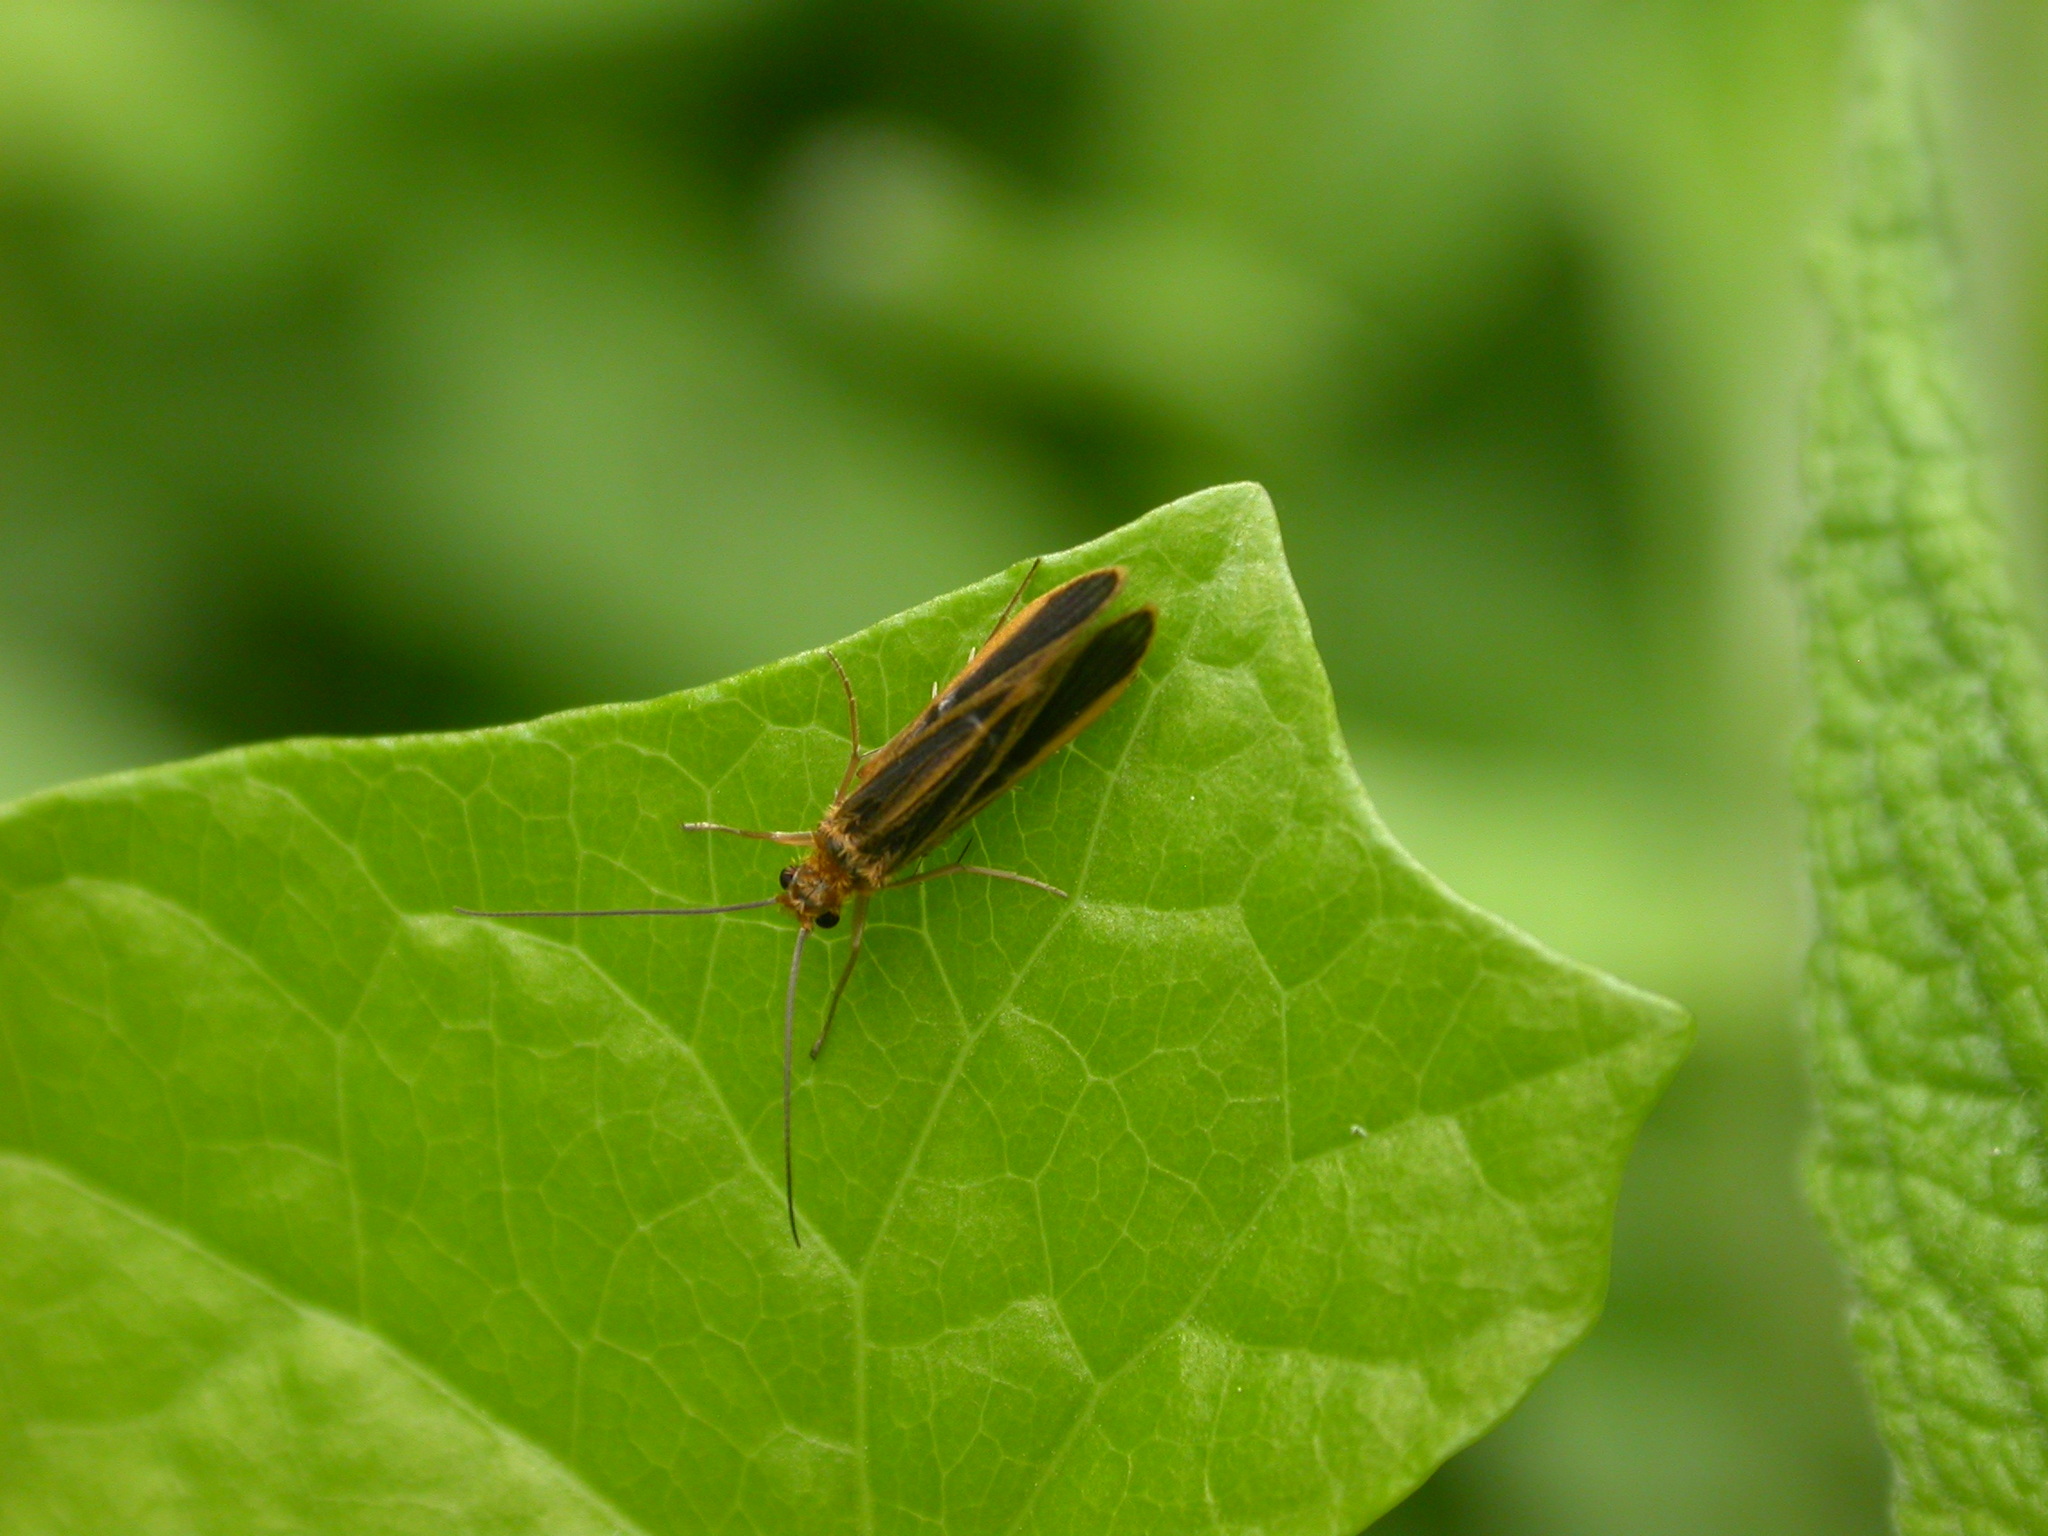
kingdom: Animalia
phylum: Arthropoda
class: Insecta
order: Trichoptera
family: Philopotamidae
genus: Chimarra
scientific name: Chimarra marginata
